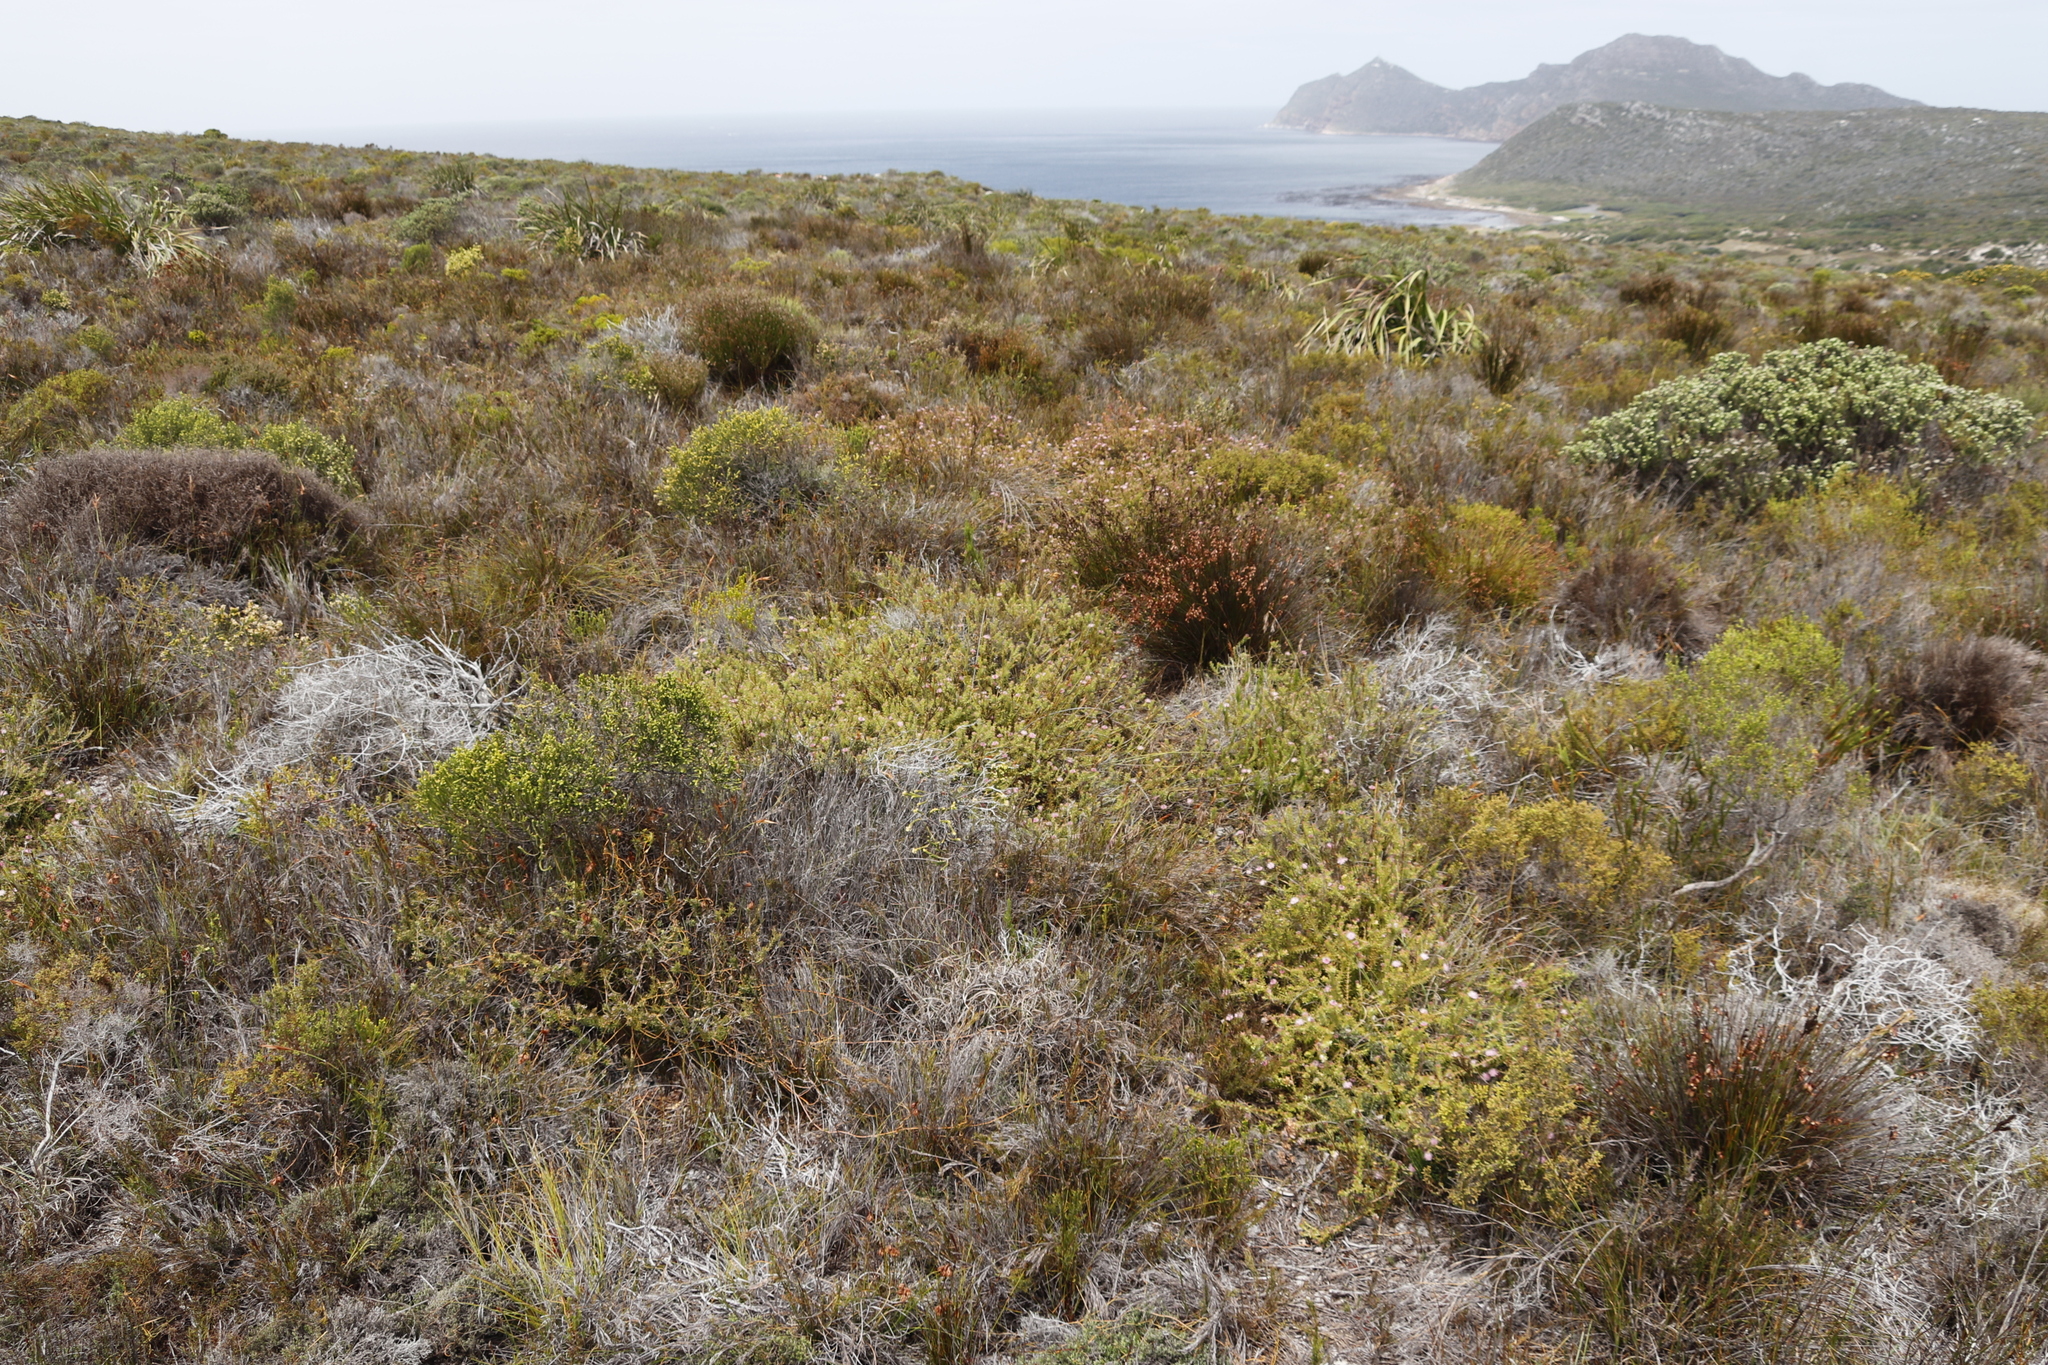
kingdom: Plantae
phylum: Tracheophyta
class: Magnoliopsida
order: Proteales
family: Proteaceae
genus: Diastella
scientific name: Diastella divaricata
